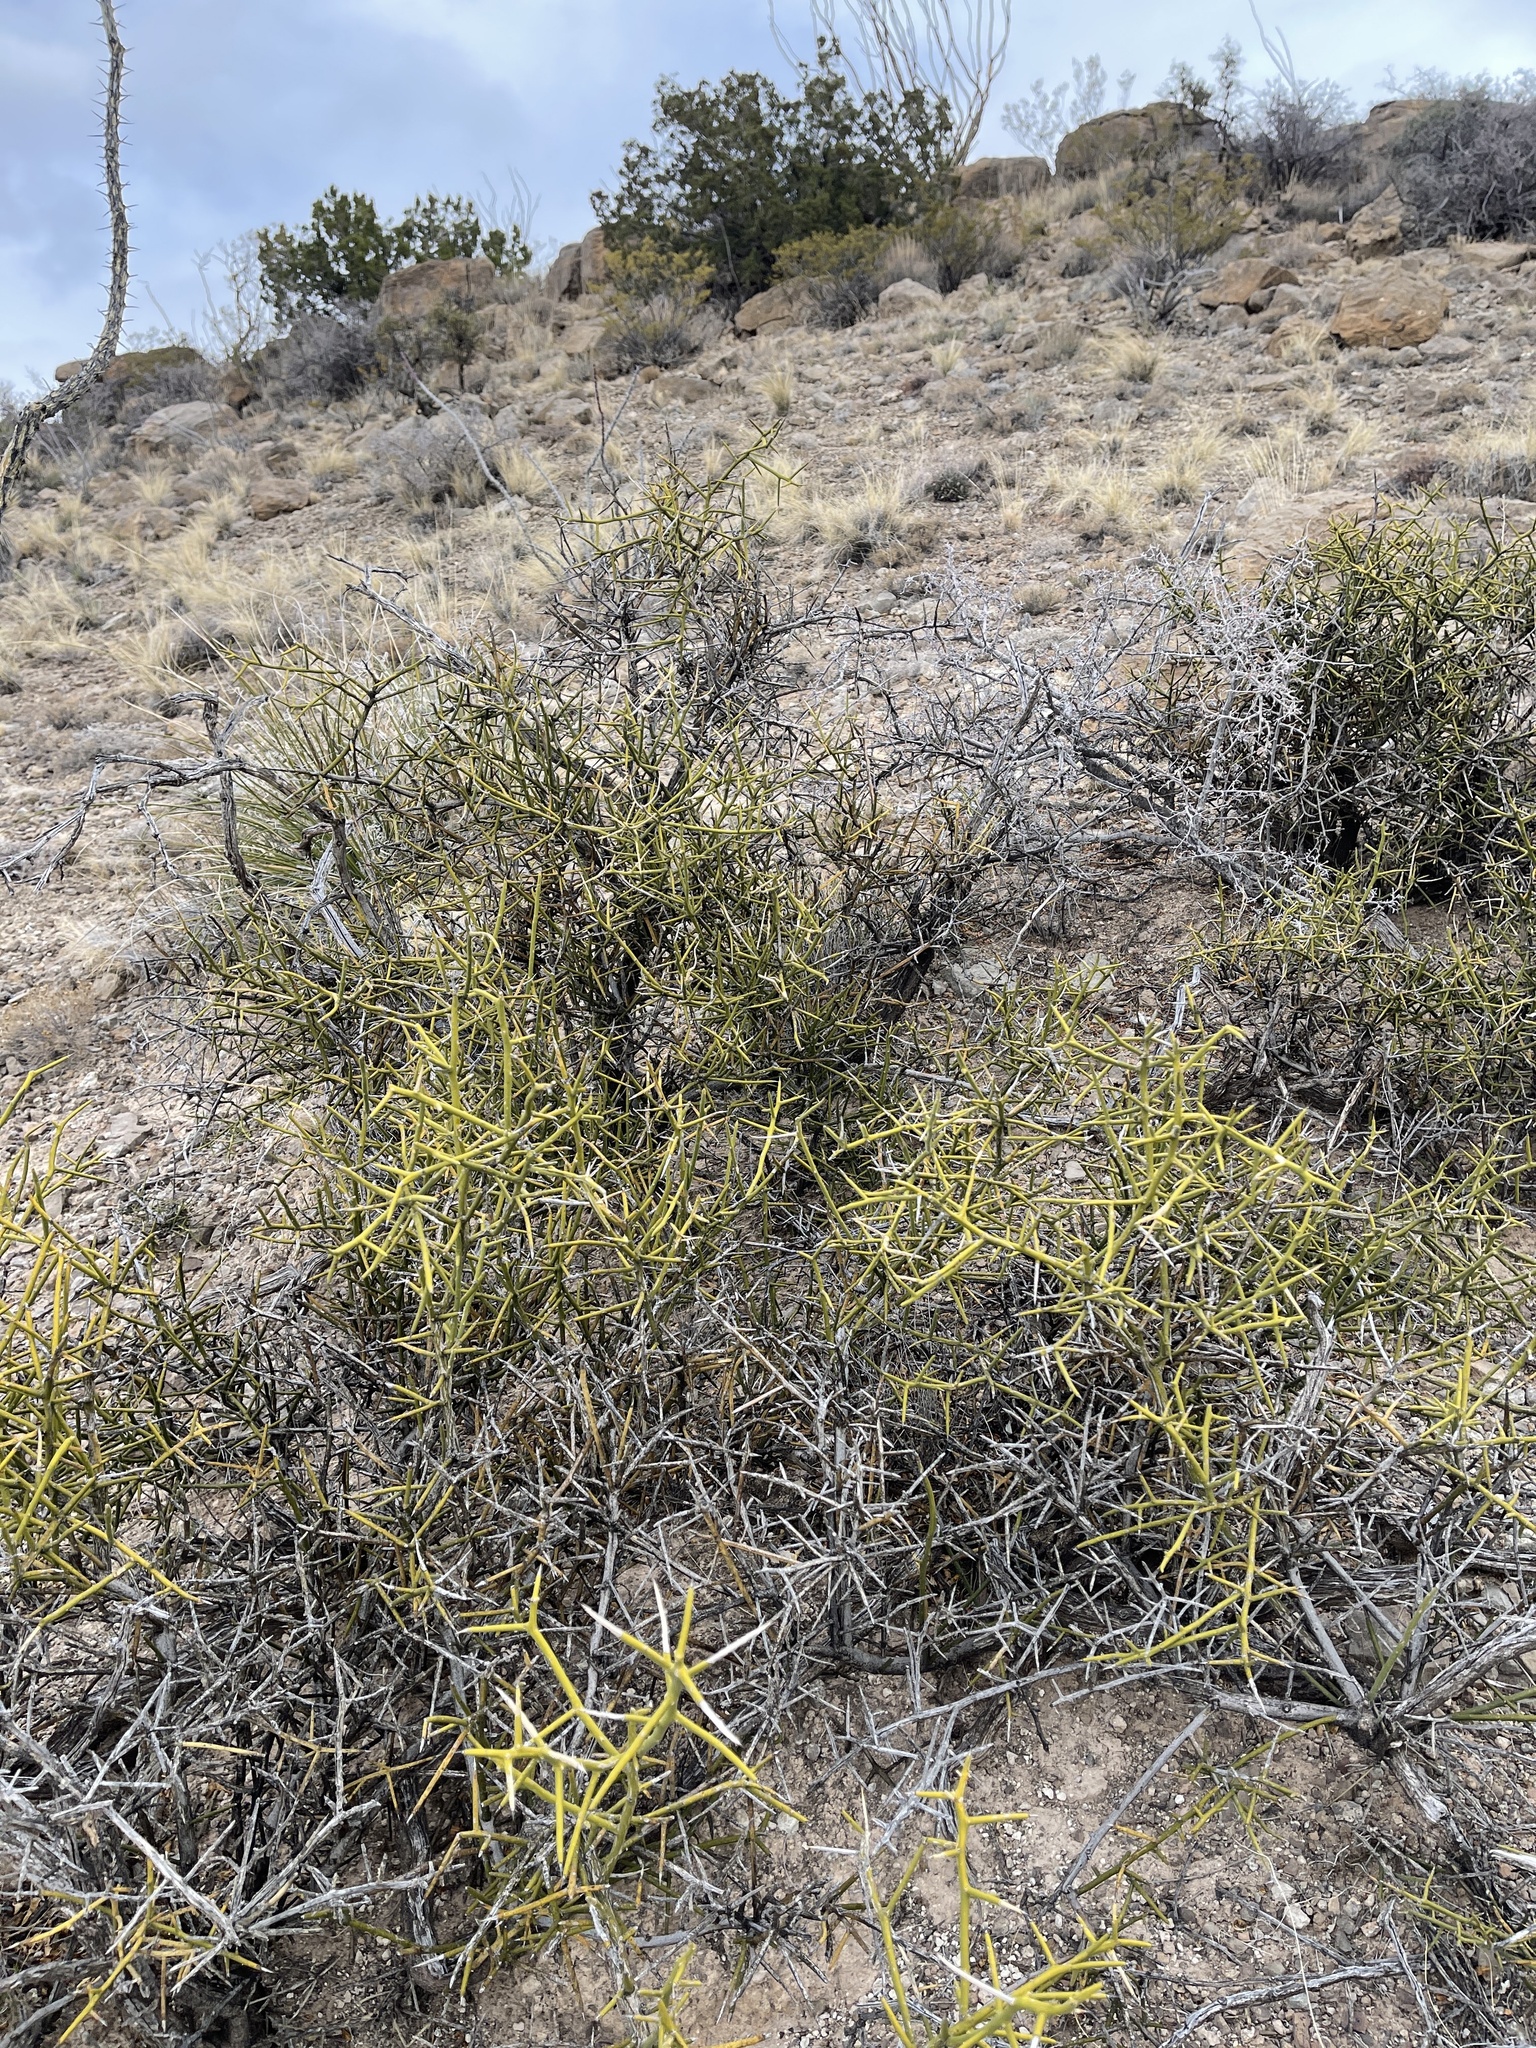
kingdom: Plantae
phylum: Tracheophyta
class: Magnoliopsida
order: Brassicales
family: Koeberliniaceae
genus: Koeberlinia
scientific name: Koeberlinia spinosa
